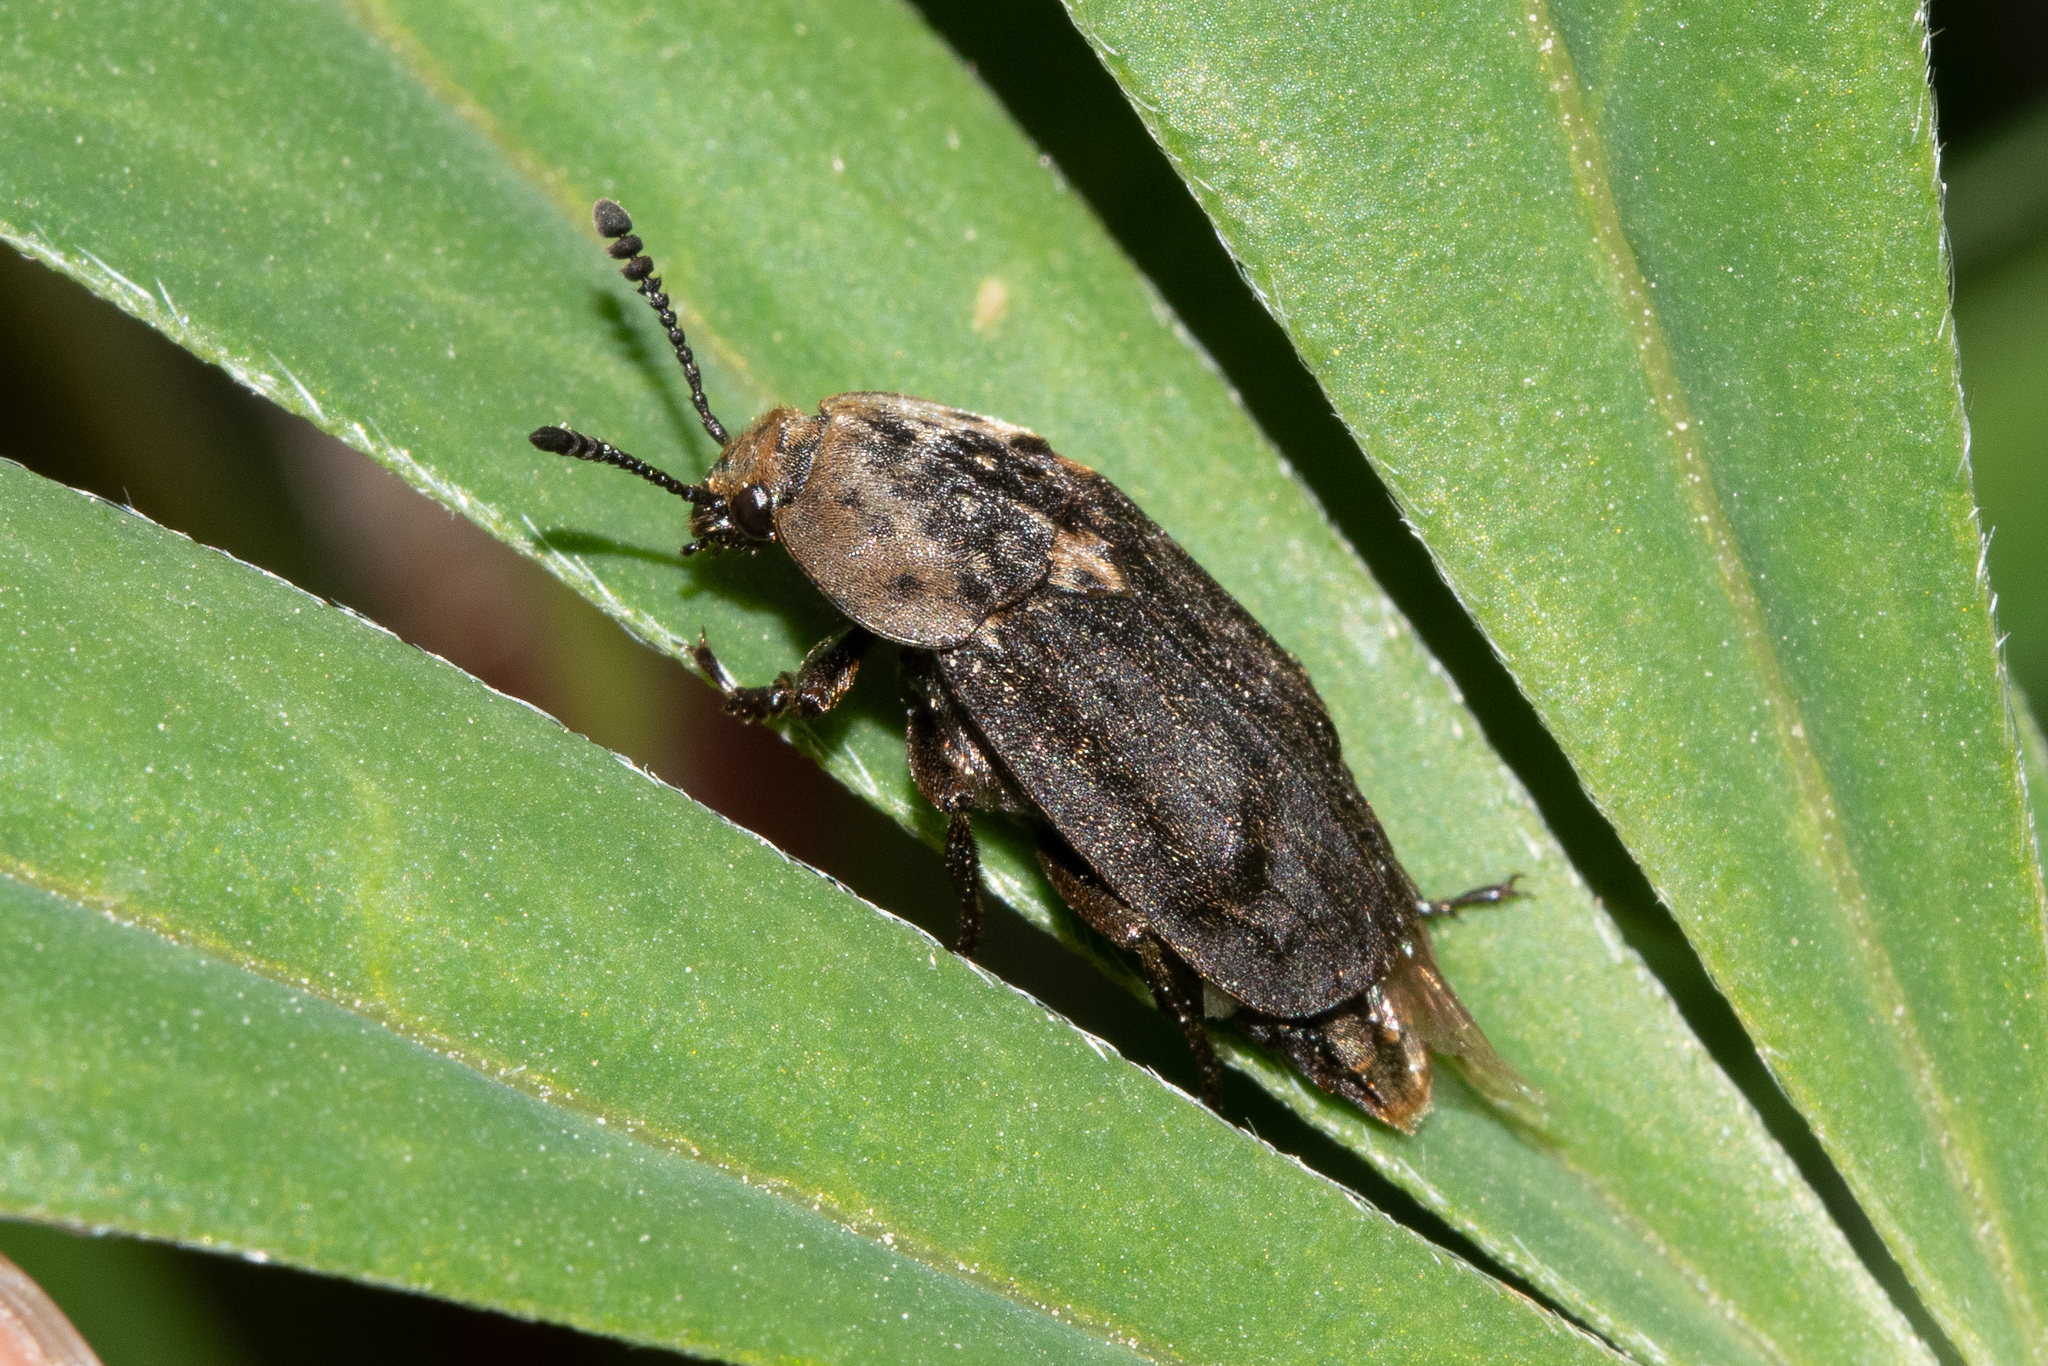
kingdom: Animalia
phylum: Arthropoda
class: Insecta
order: Coleoptera
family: Staphylinidae
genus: Thanatophilus
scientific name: Thanatophilus dispar
